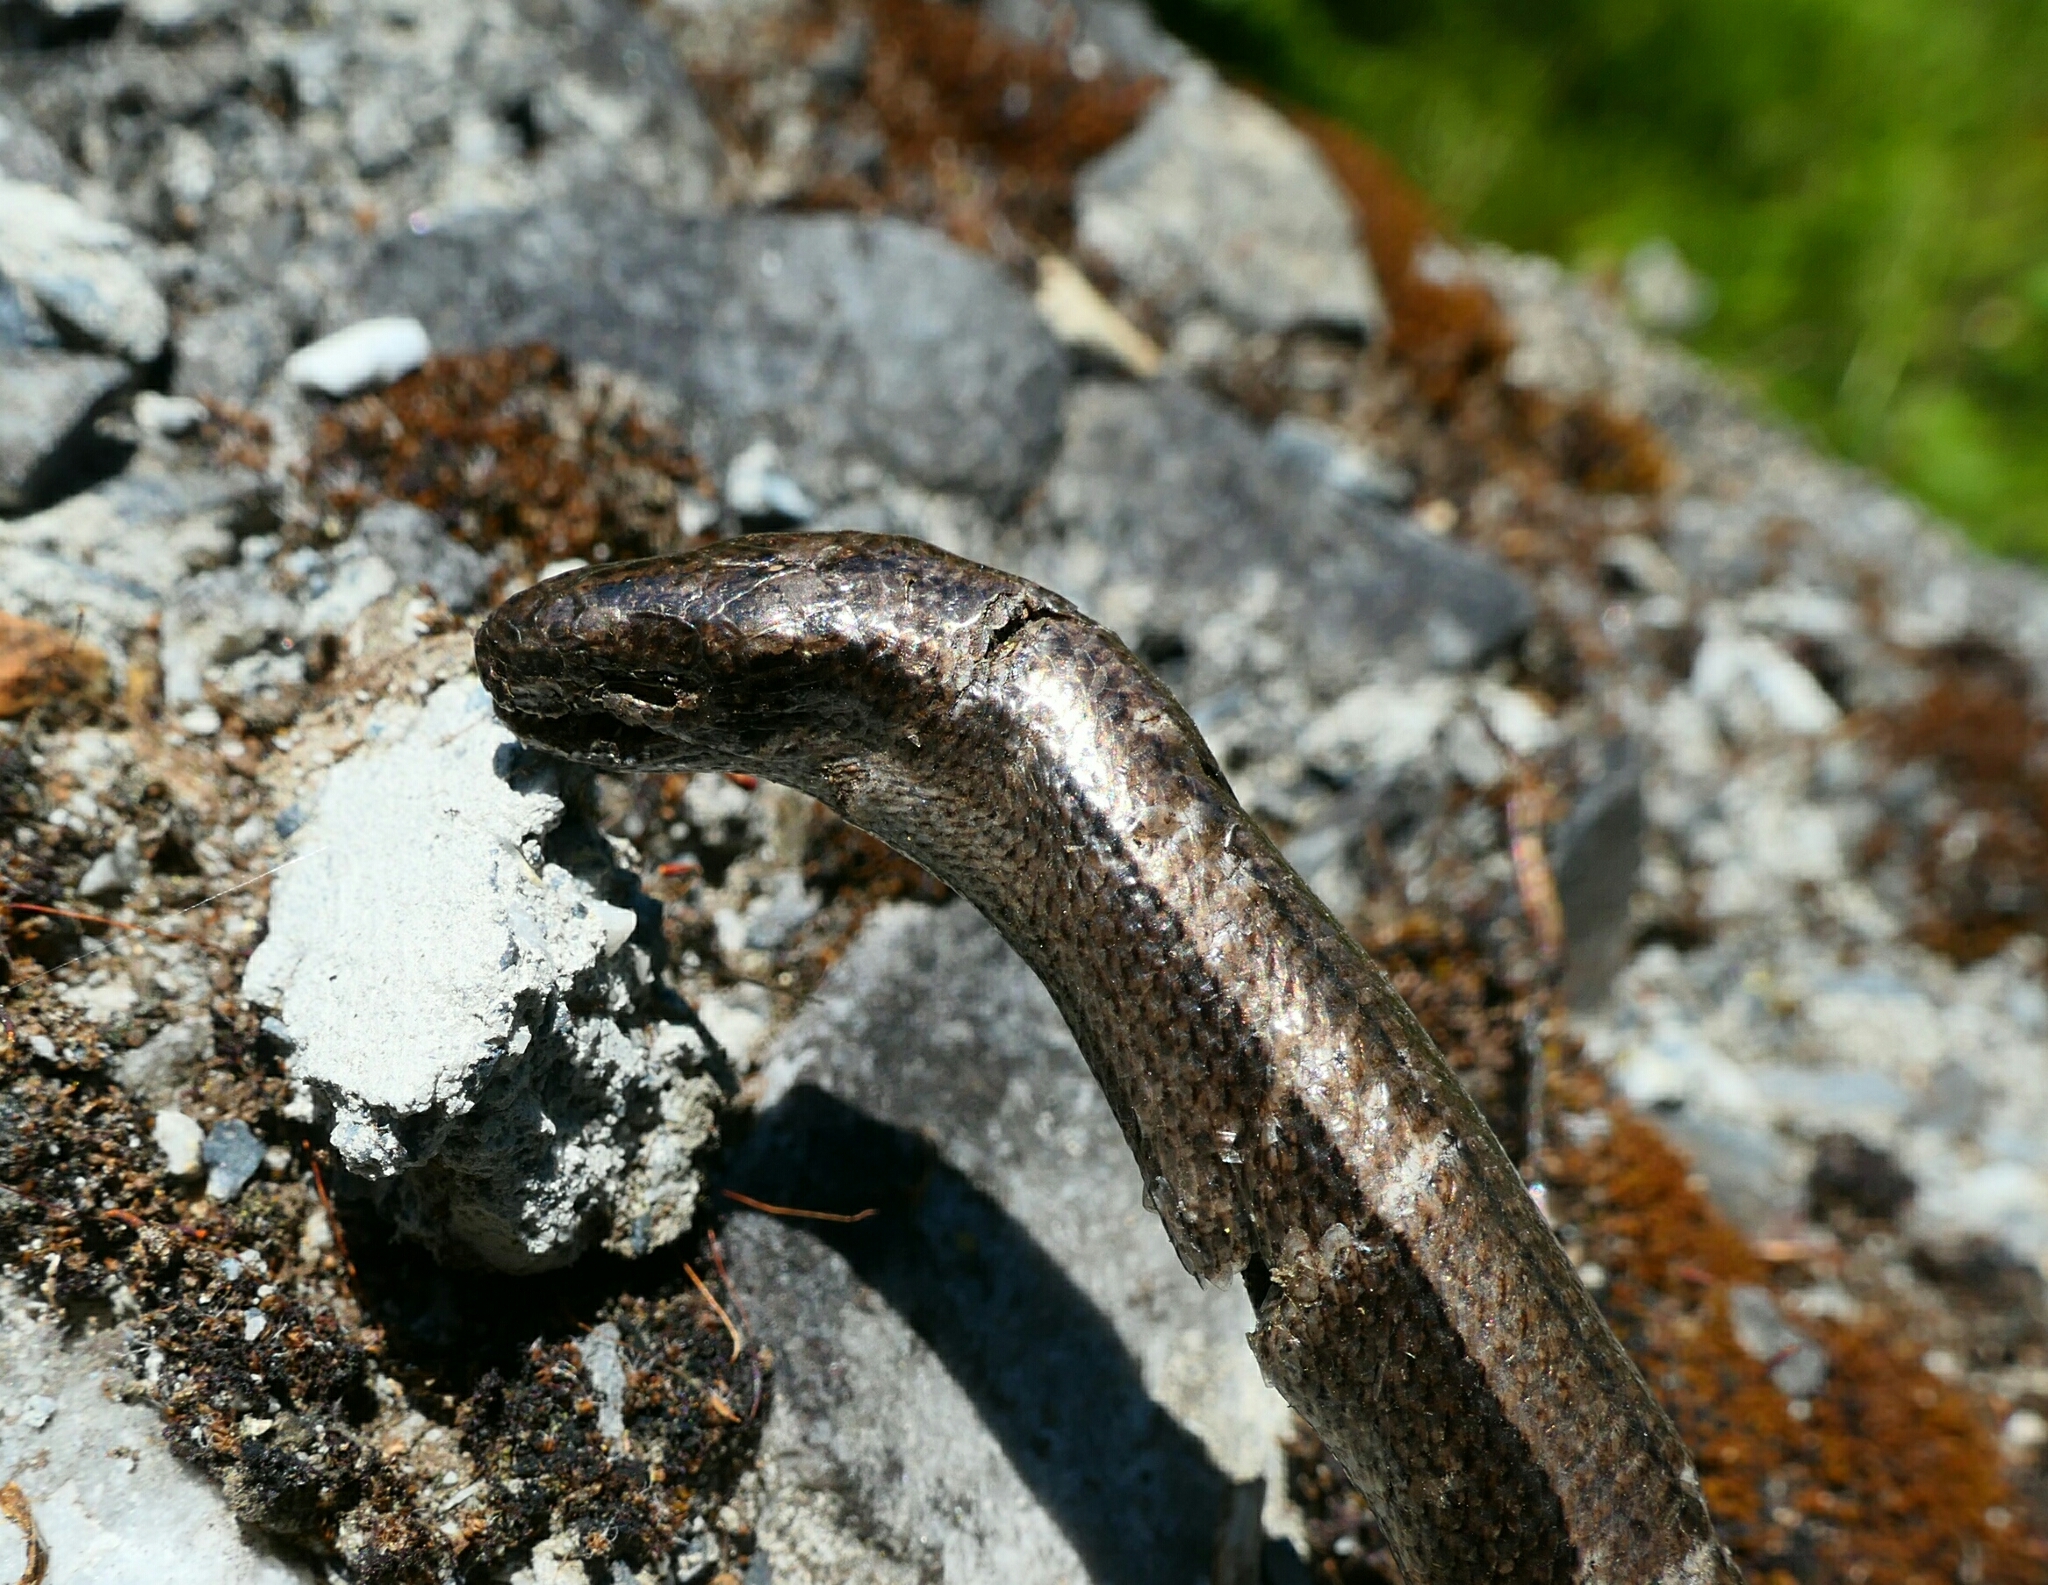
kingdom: Animalia
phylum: Chordata
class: Squamata
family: Anguidae
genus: Anguis
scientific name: Anguis fragilis
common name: Slow worm
